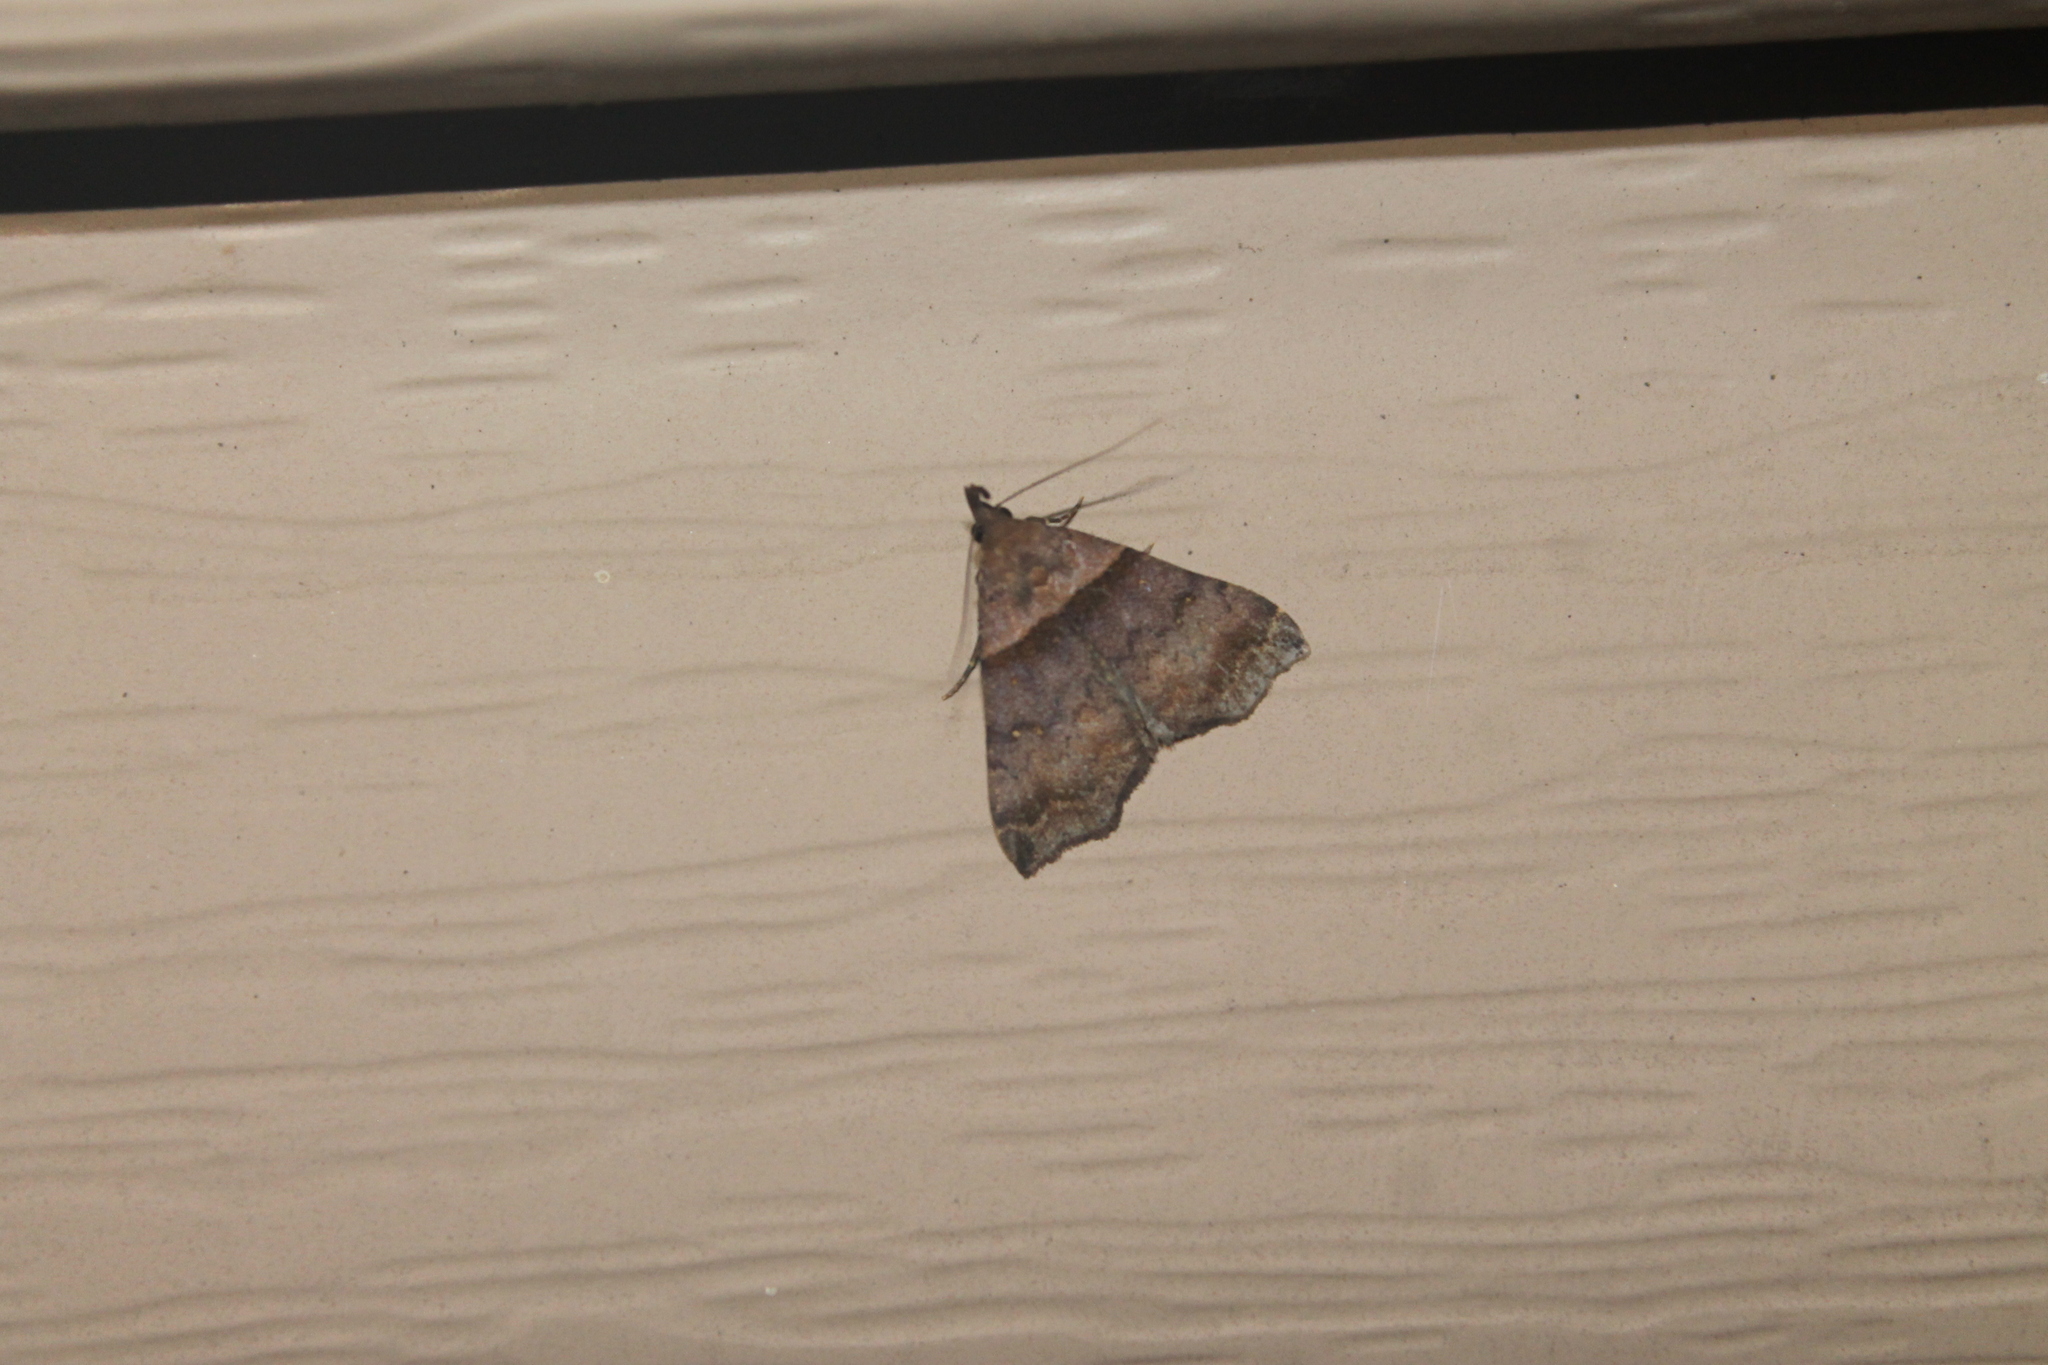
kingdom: Animalia
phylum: Arthropoda
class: Insecta
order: Lepidoptera
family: Erebidae
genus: Lascoria
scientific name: Lascoria ambigualis
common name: Ambiguous moth
